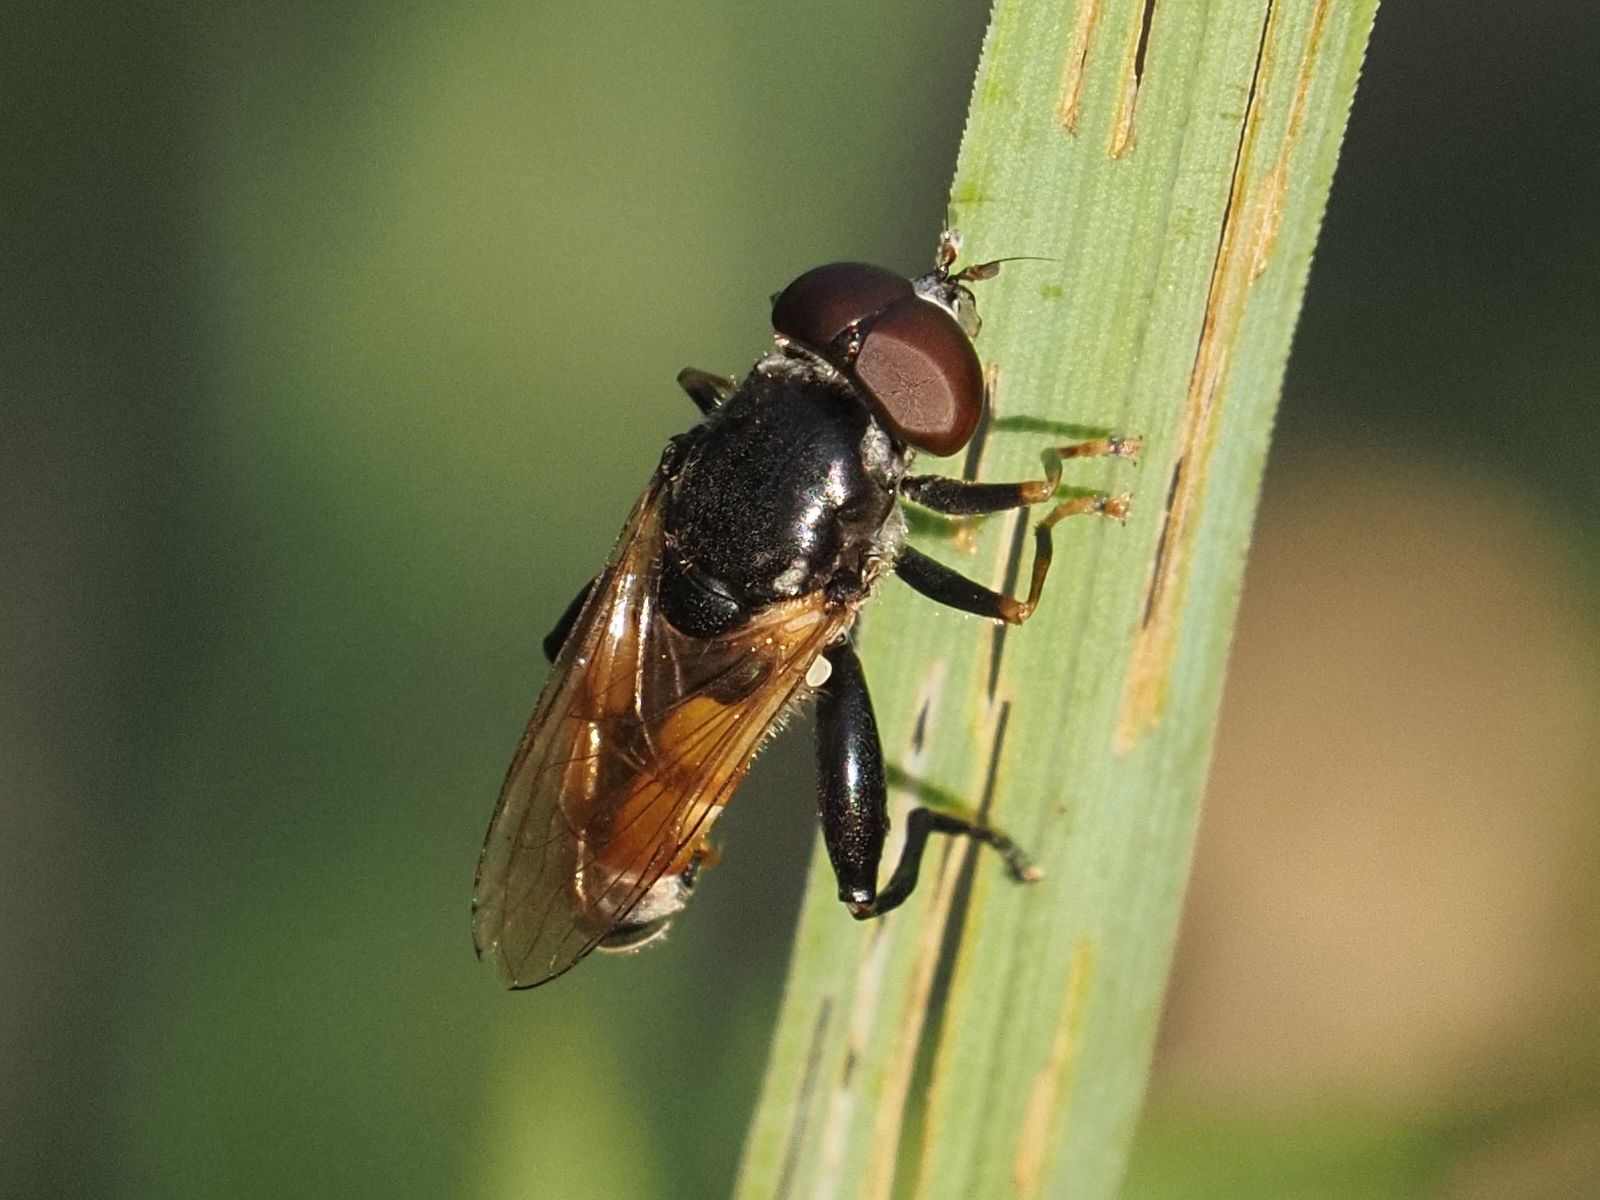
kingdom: Animalia
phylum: Arthropoda
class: Insecta
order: Diptera
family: Syrphidae
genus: Tropidia
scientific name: Tropidia scita
